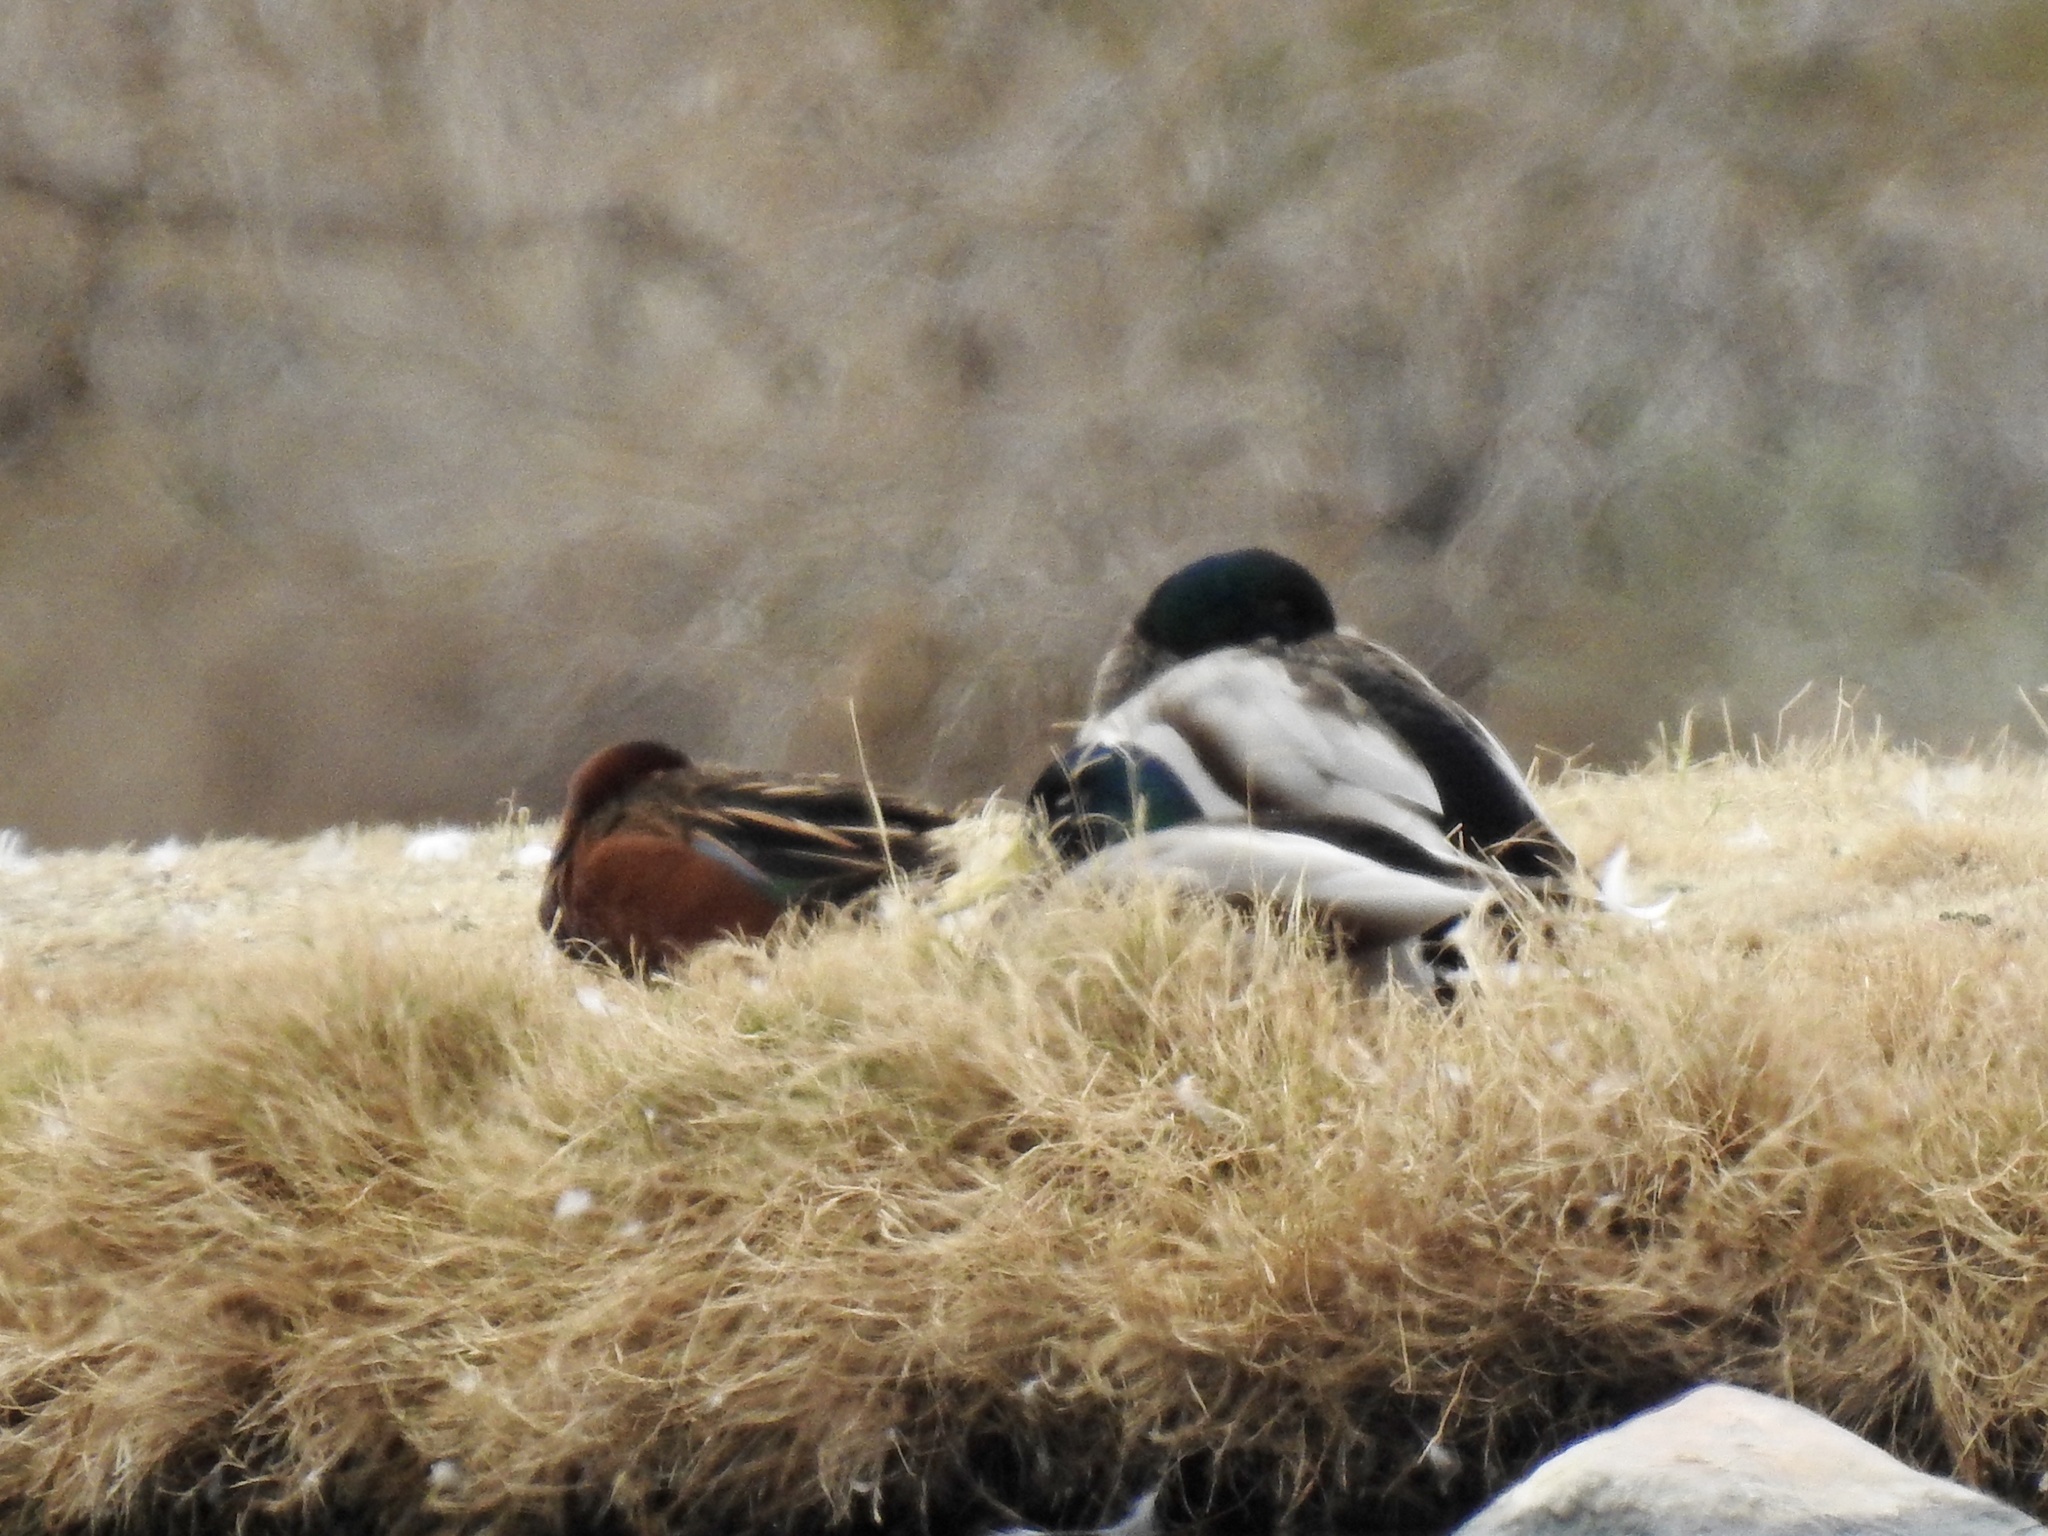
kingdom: Animalia
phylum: Chordata
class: Aves
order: Anseriformes
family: Anatidae
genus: Spatula
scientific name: Spatula cyanoptera
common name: Cinnamon teal
